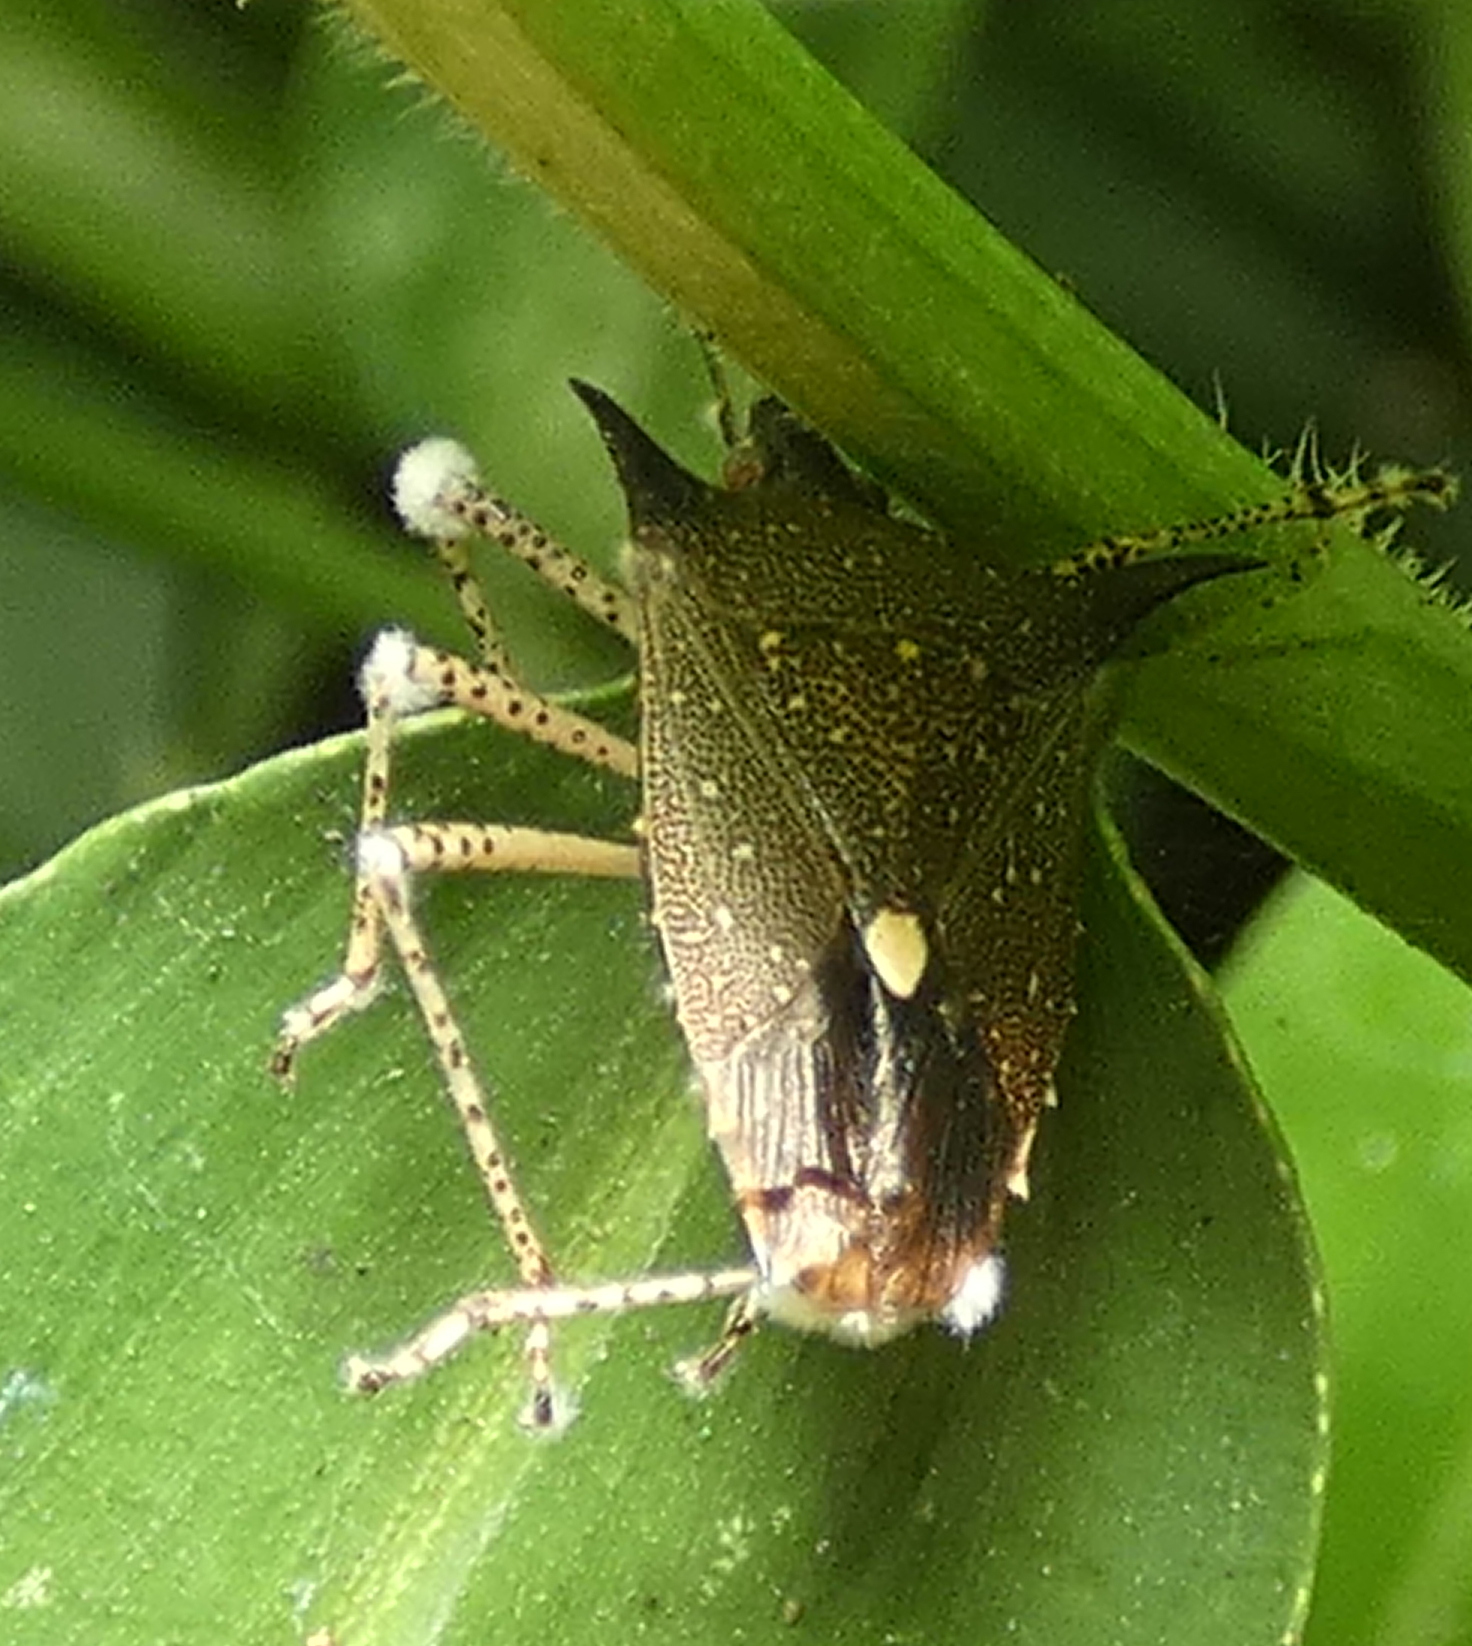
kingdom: Animalia
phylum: Arthropoda
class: Insecta
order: Hemiptera
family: Pentatomidae
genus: Proxys
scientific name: Proxys albopunctulatus
